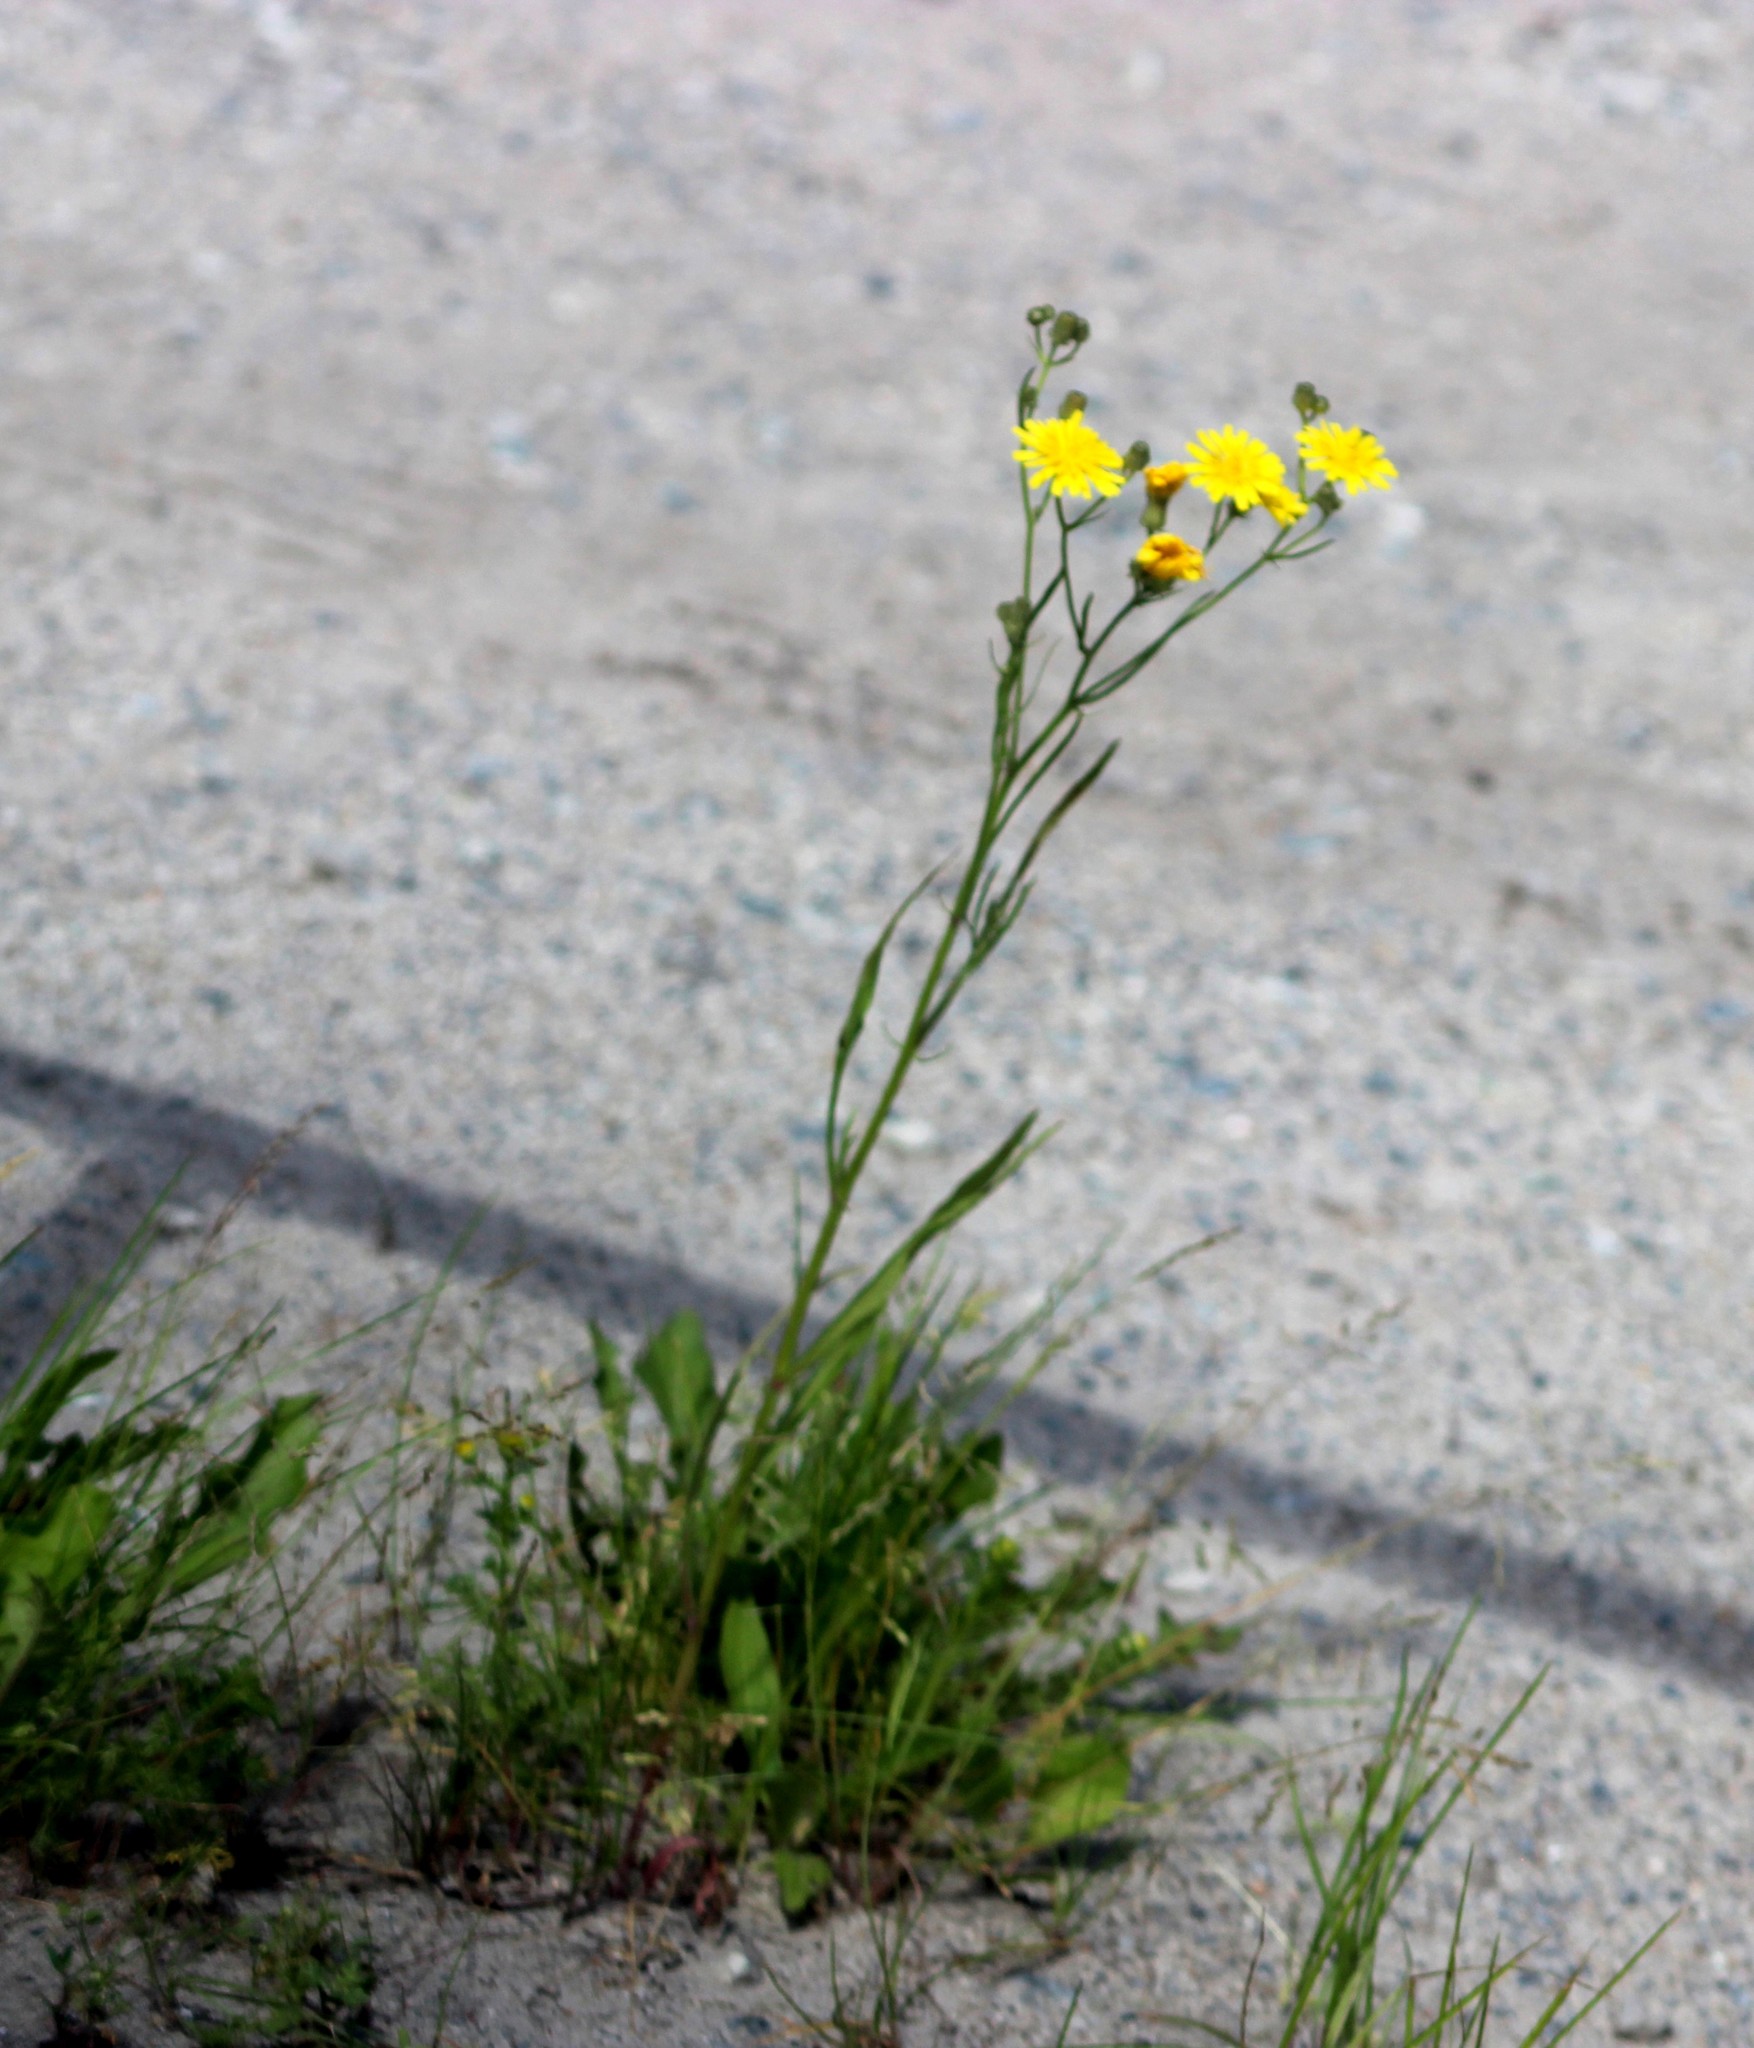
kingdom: Plantae
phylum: Tracheophyta
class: Magnoliopsida
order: Asterales
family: Asteraceae
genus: Crepis
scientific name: Crepis tectorum
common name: Narrow-leaved hawk's-beard
